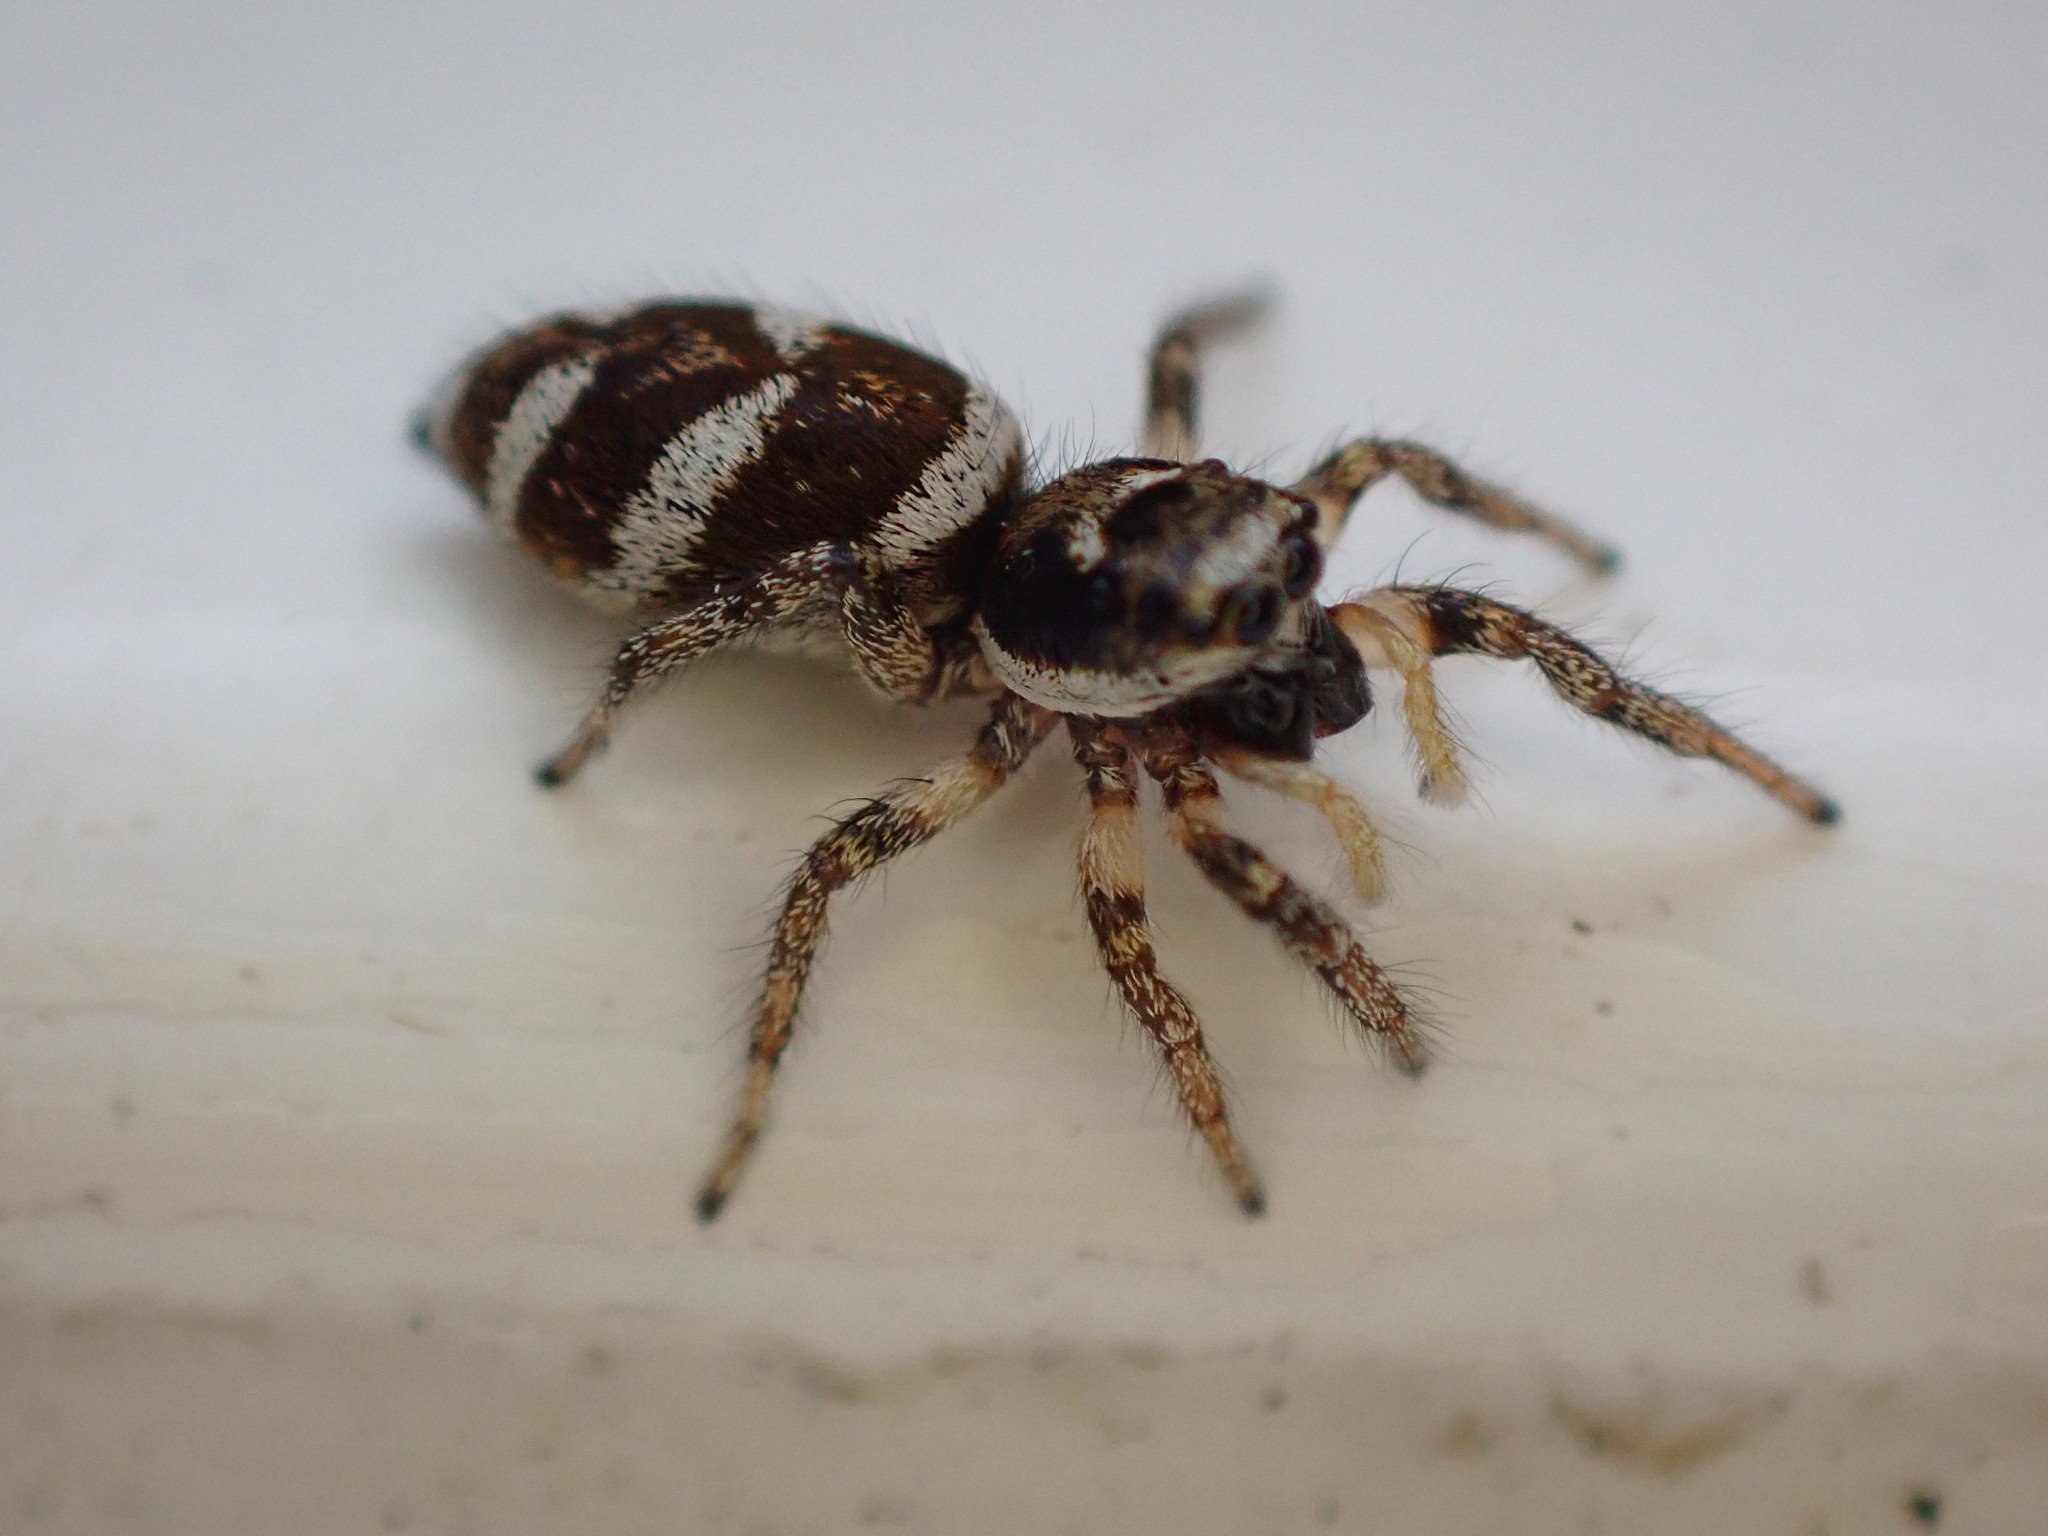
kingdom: Animalia
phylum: Arthropoda
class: Arachnida
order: Araneae
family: Salticidae
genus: Salticus
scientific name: Salticus scenicus
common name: Zebra jumper
